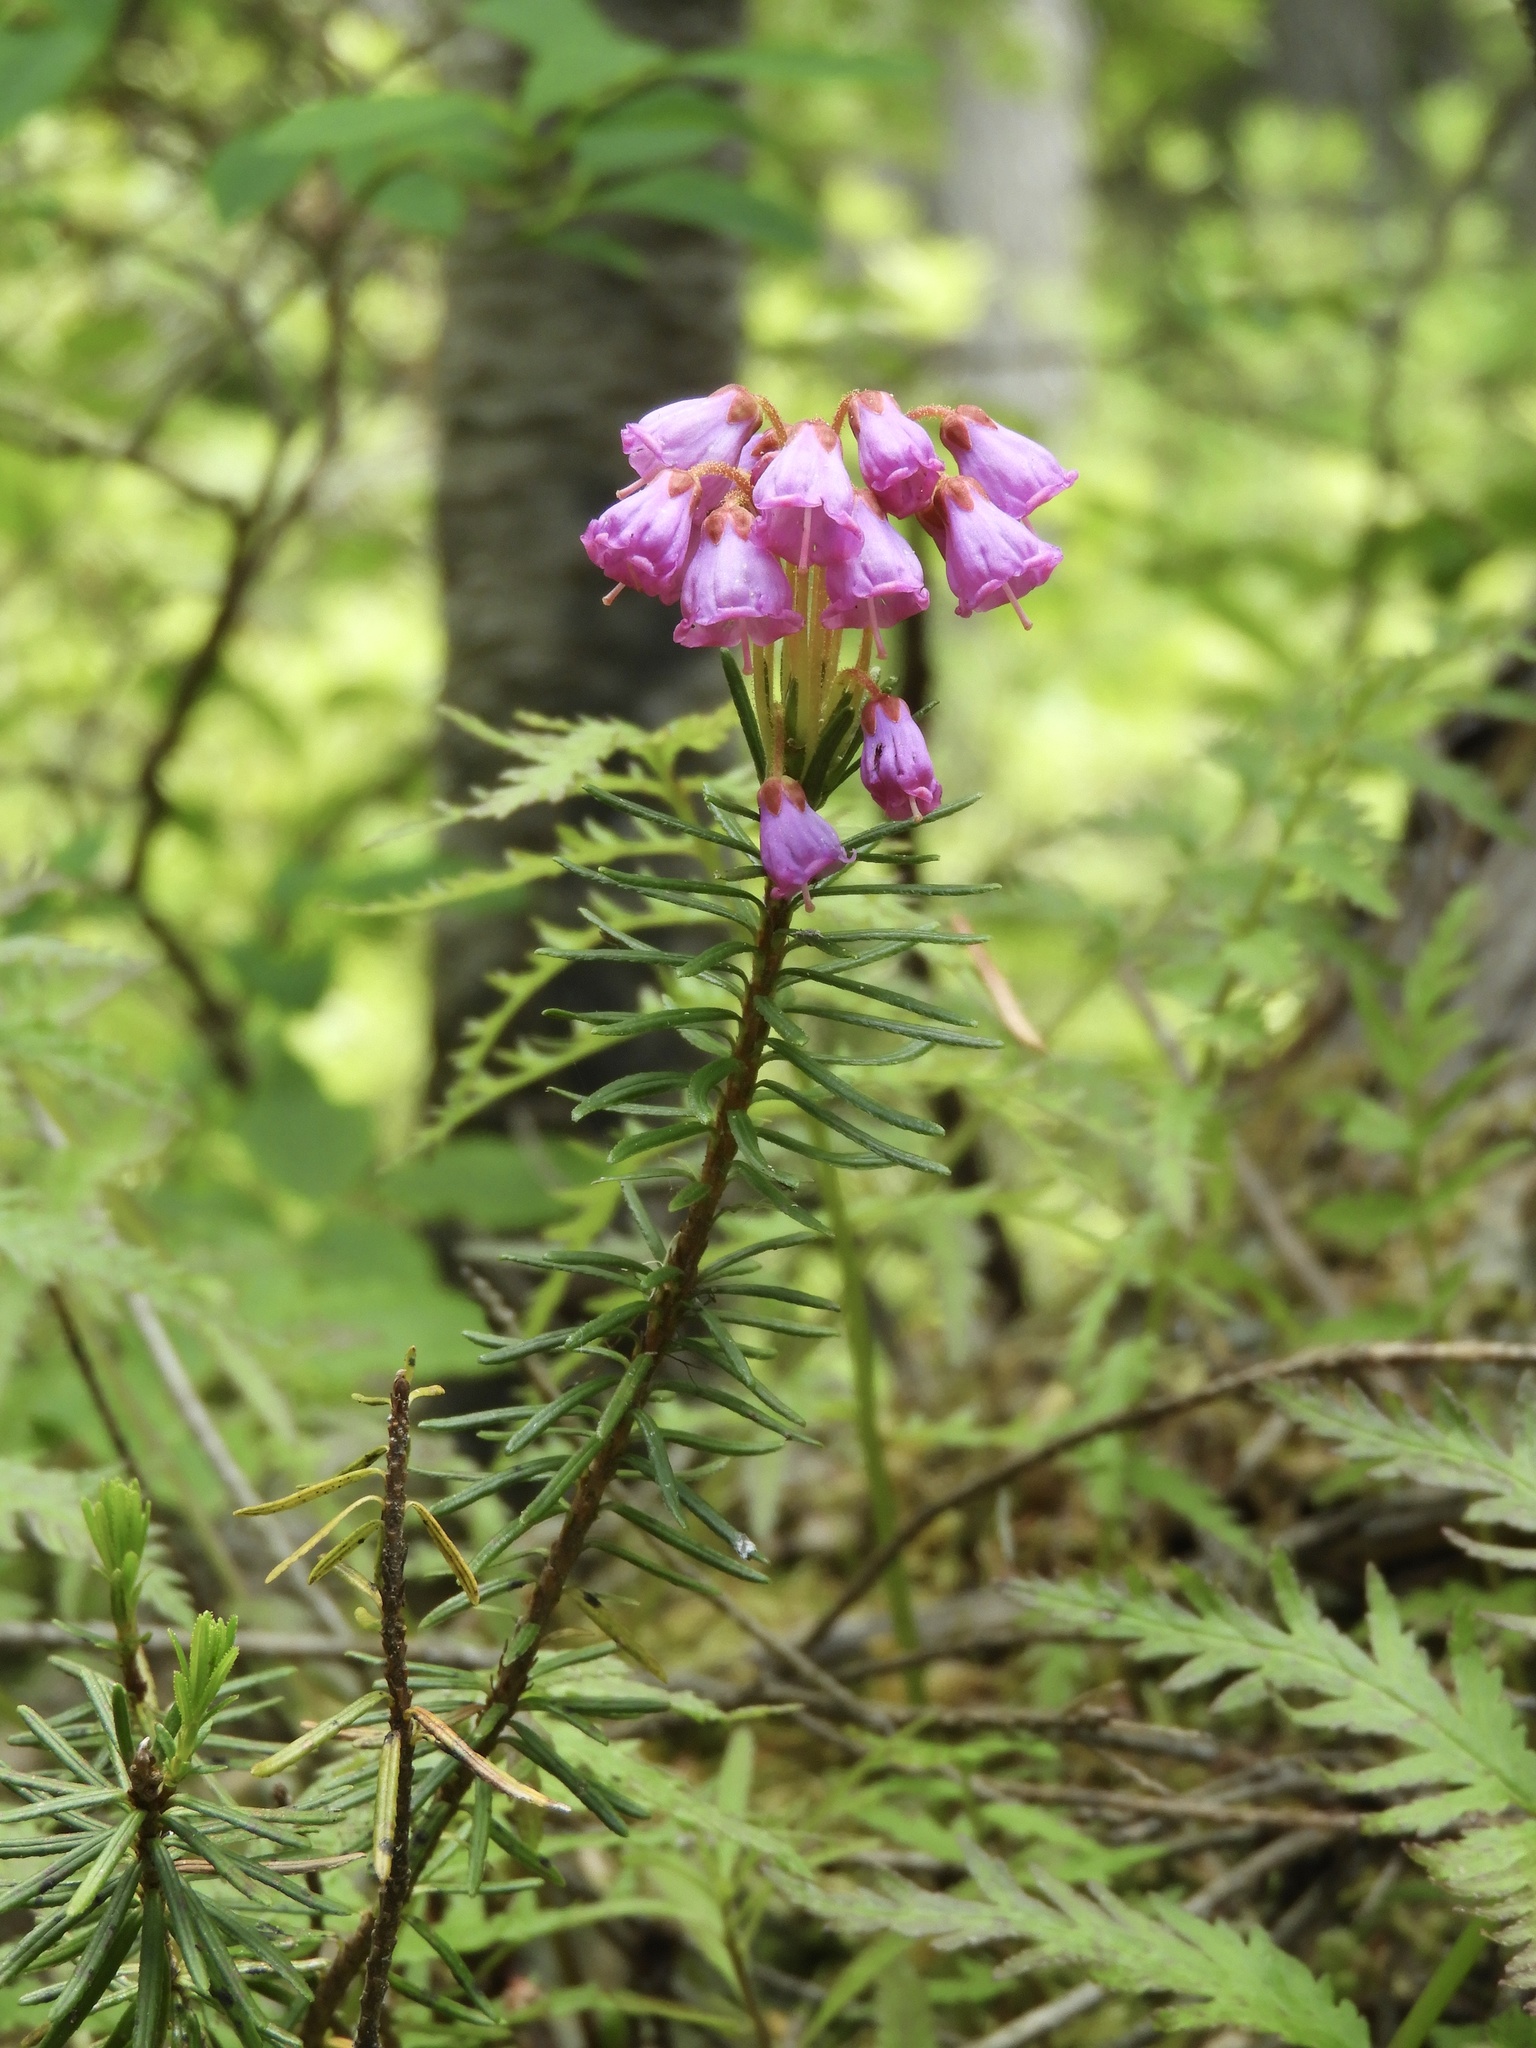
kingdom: Plantae
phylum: Tracheophyta
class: Magnoliopsida
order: Ericales
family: Ericaceae
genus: Phyllodoce
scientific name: Phyllodoce empetriformis
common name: Pink mountain heather
